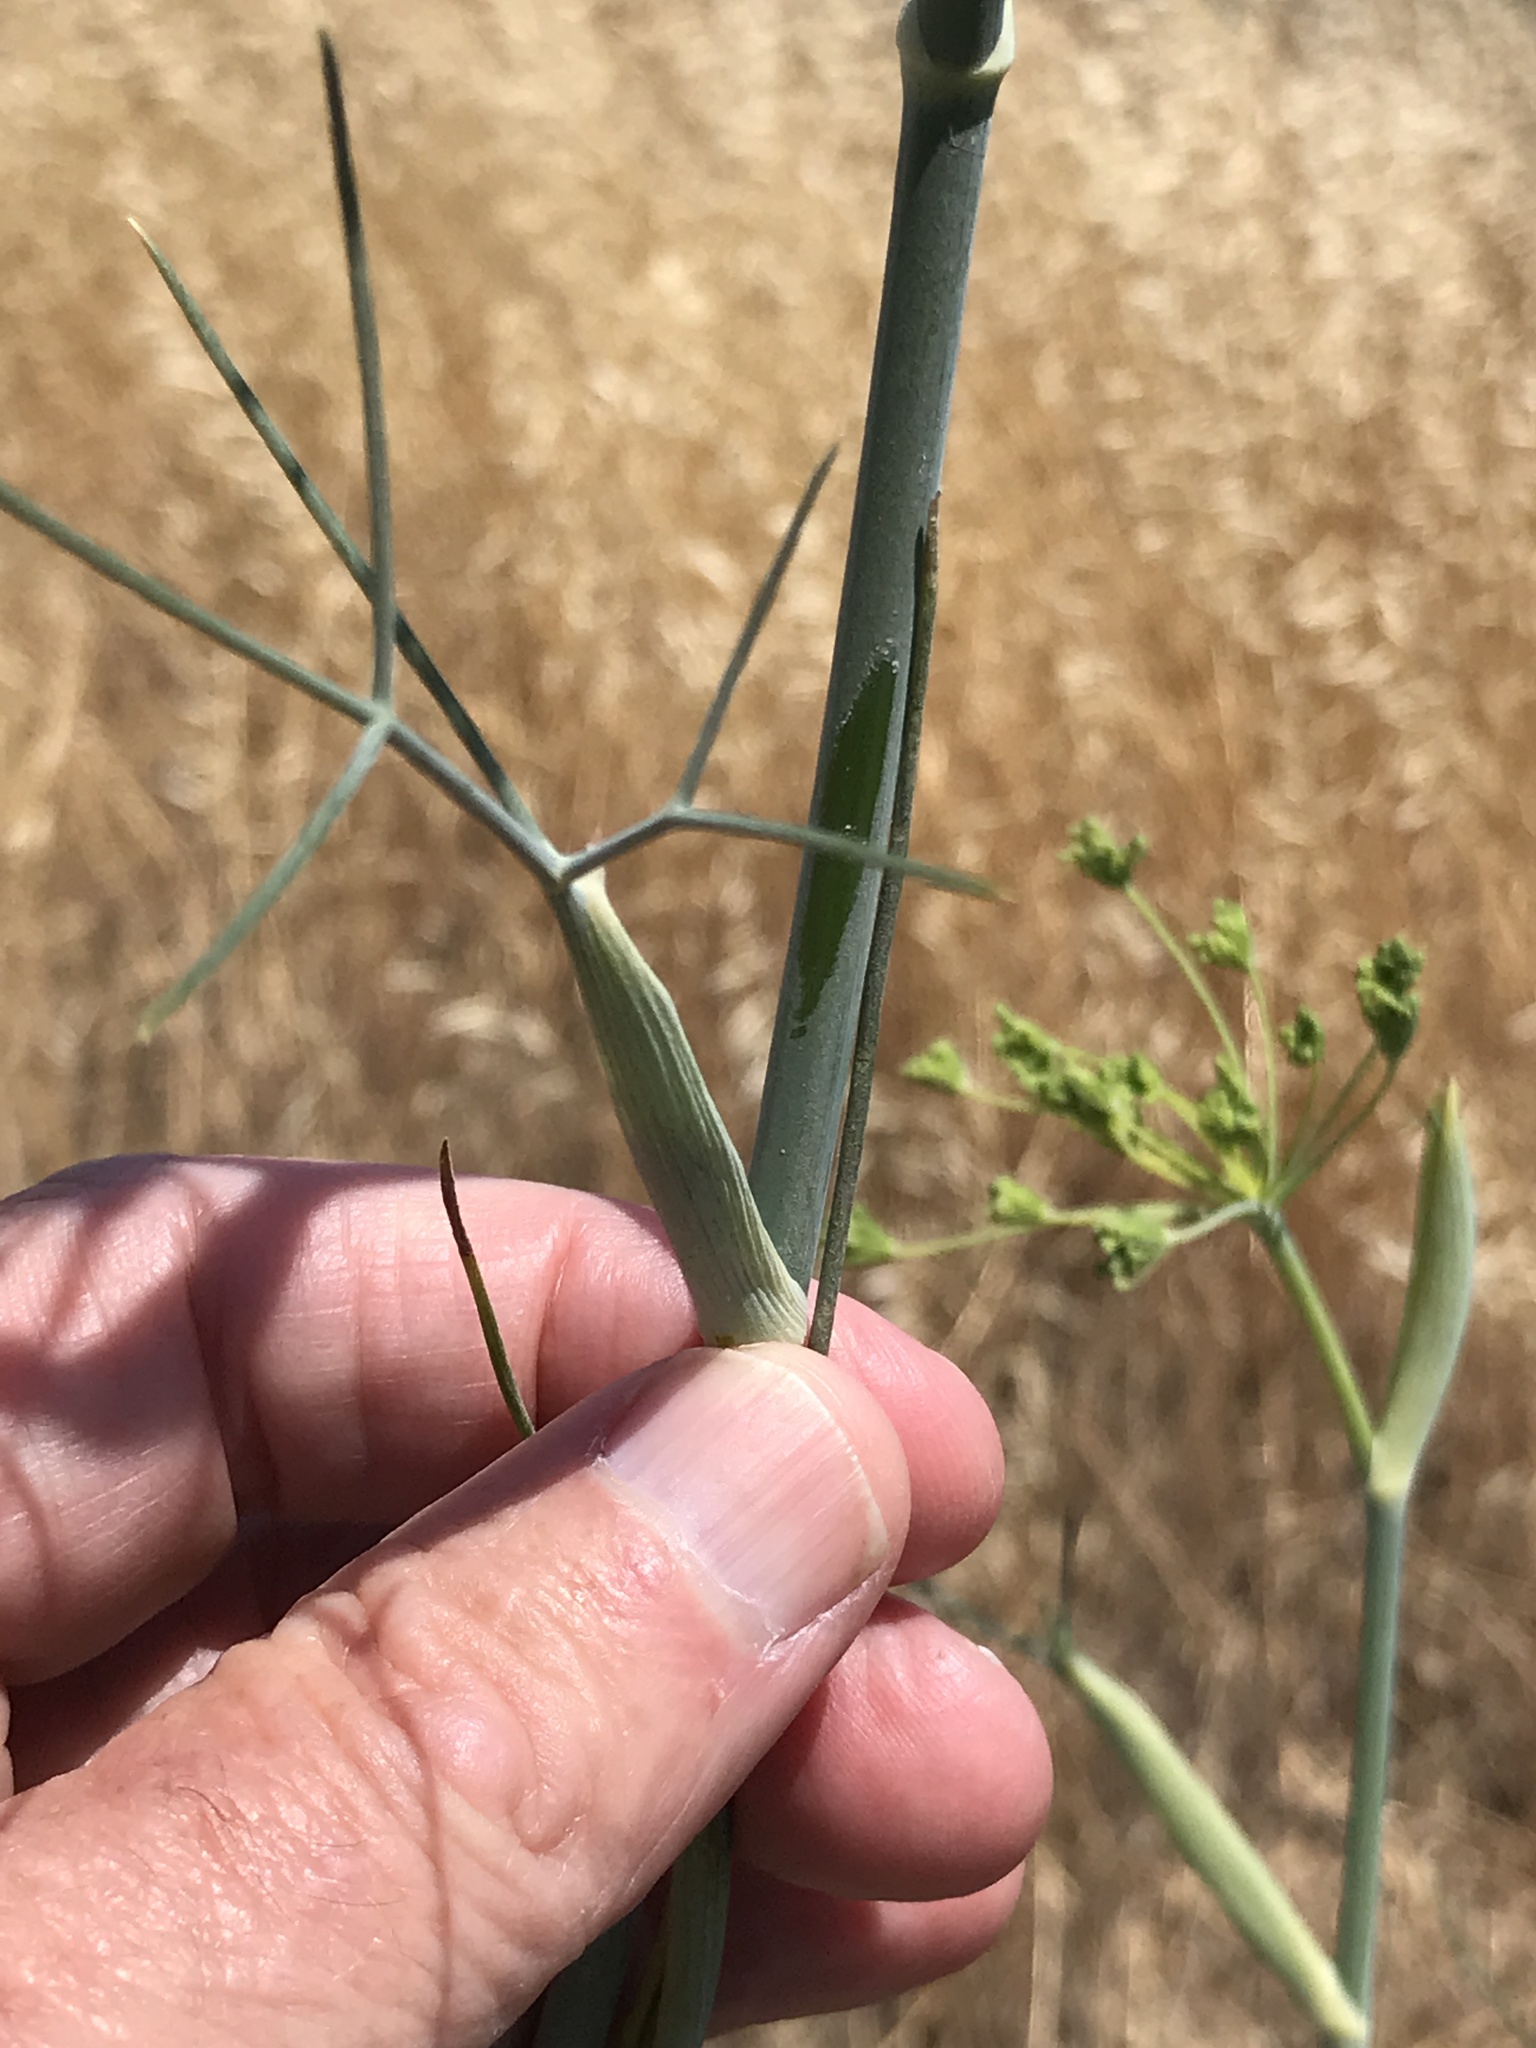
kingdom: Plantae
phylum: Tracheophyta
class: Magnoliopsida
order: Apiales
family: Apiaceae
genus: Foeniculum
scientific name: Foeniculum vulgare
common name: Fennel
